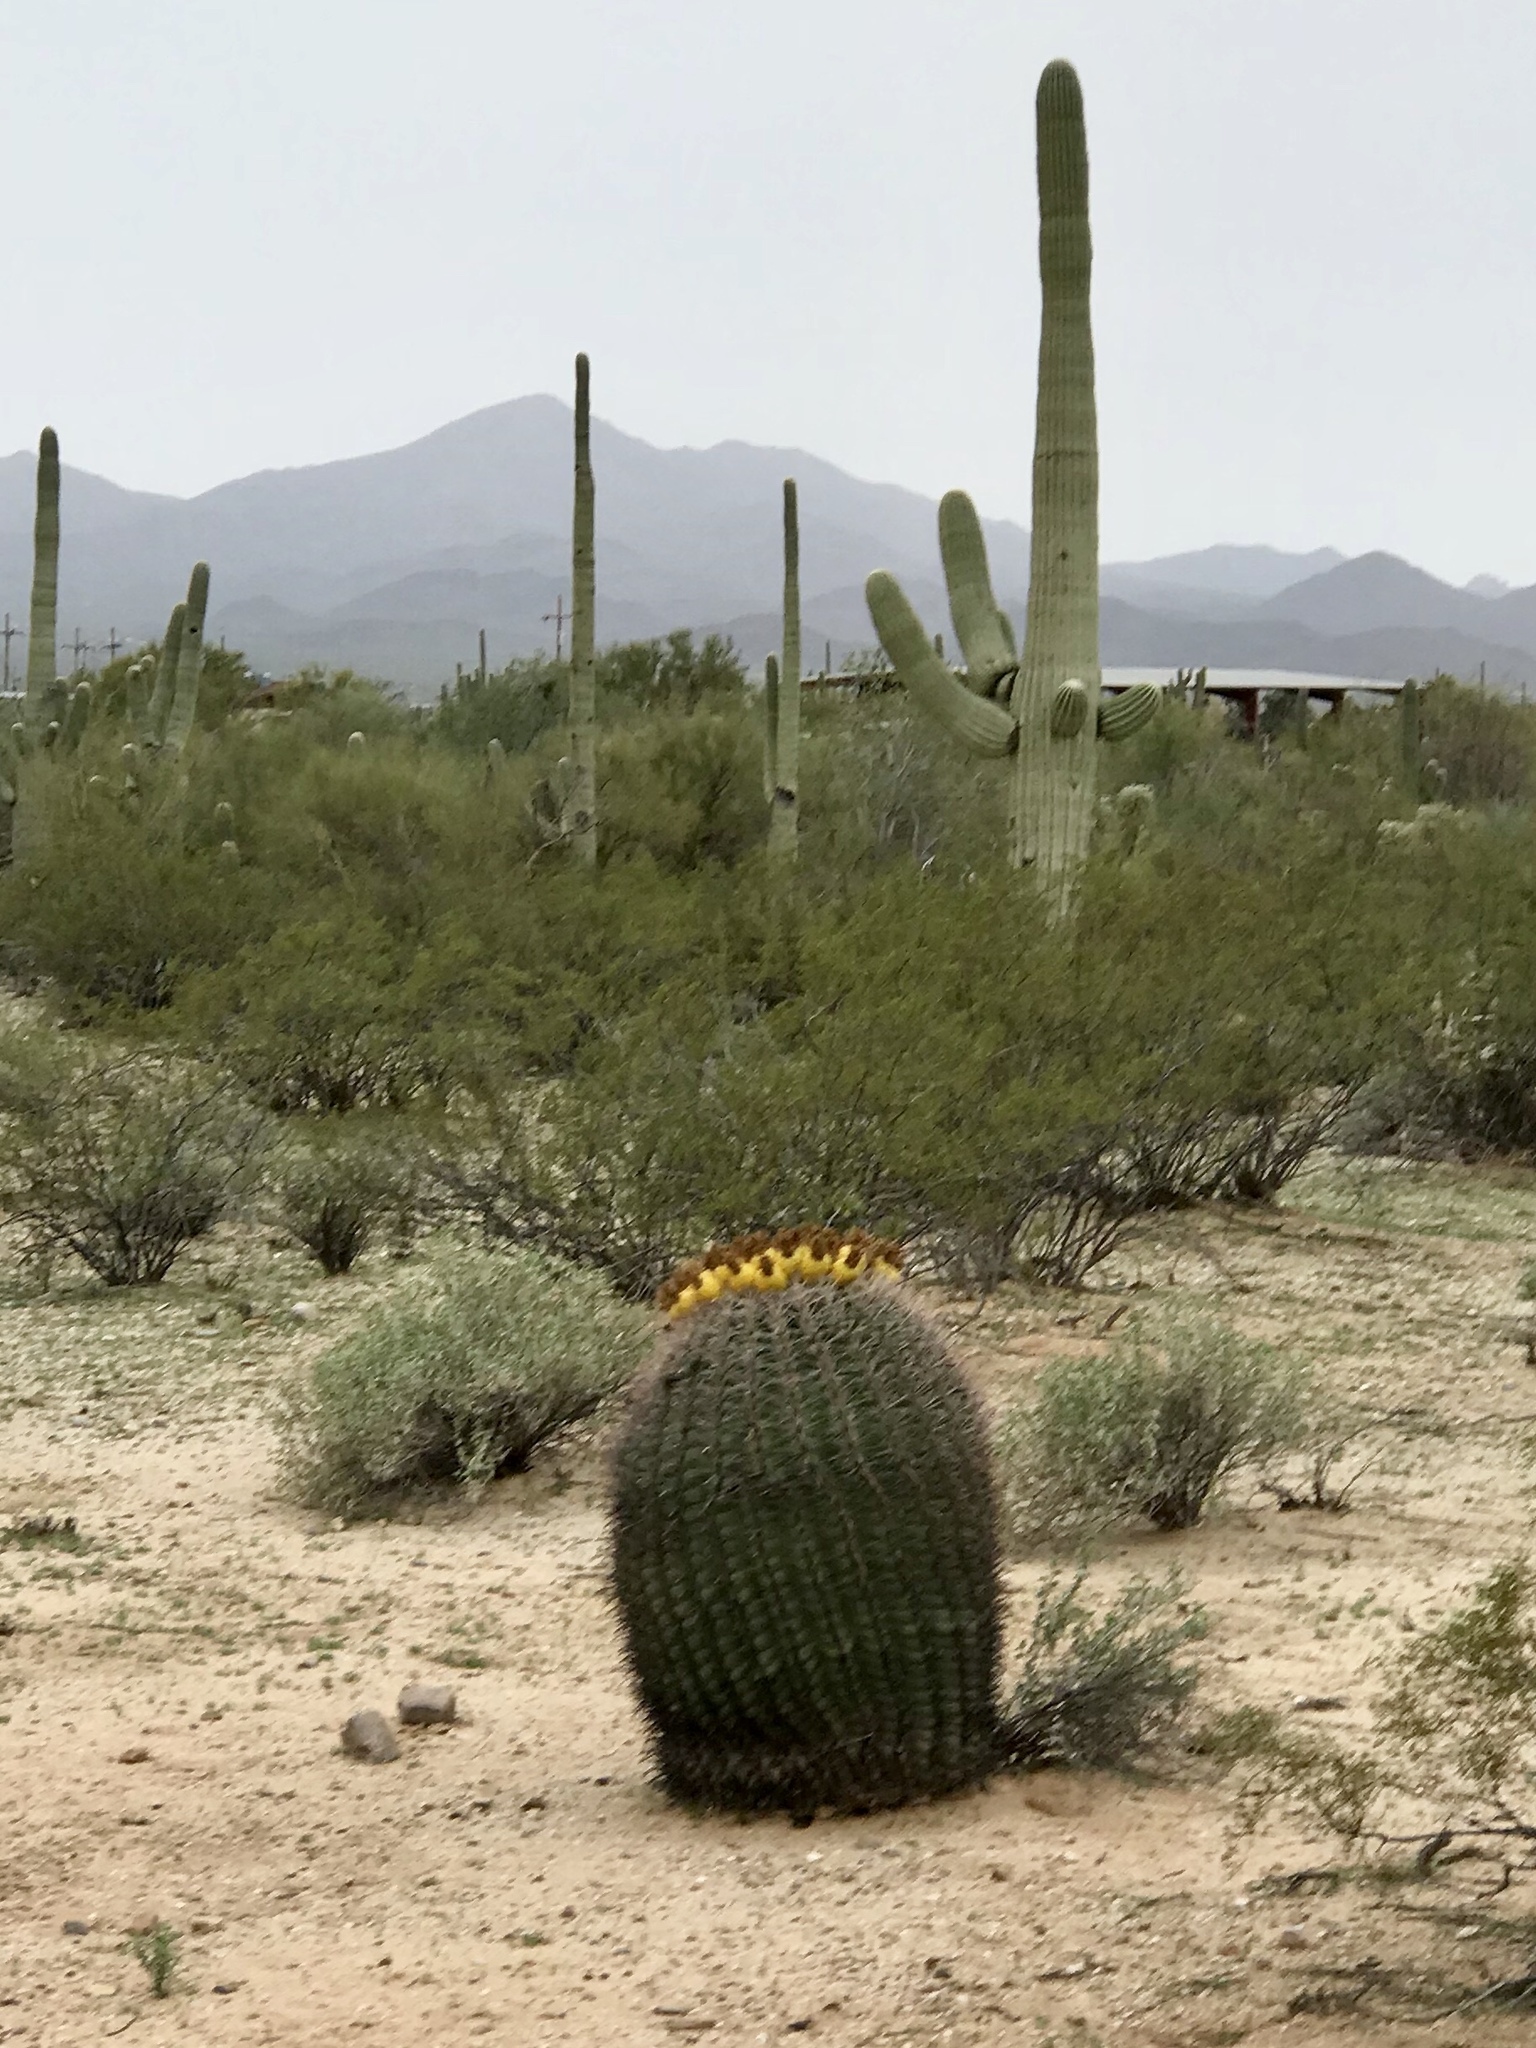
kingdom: Plantae
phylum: Tracheophyta
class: Magnoliopsida
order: Caryophyllales
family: Cactaceae
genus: Ferocactus
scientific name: Ferocactus wislizeni
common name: Candy barrel cactus
